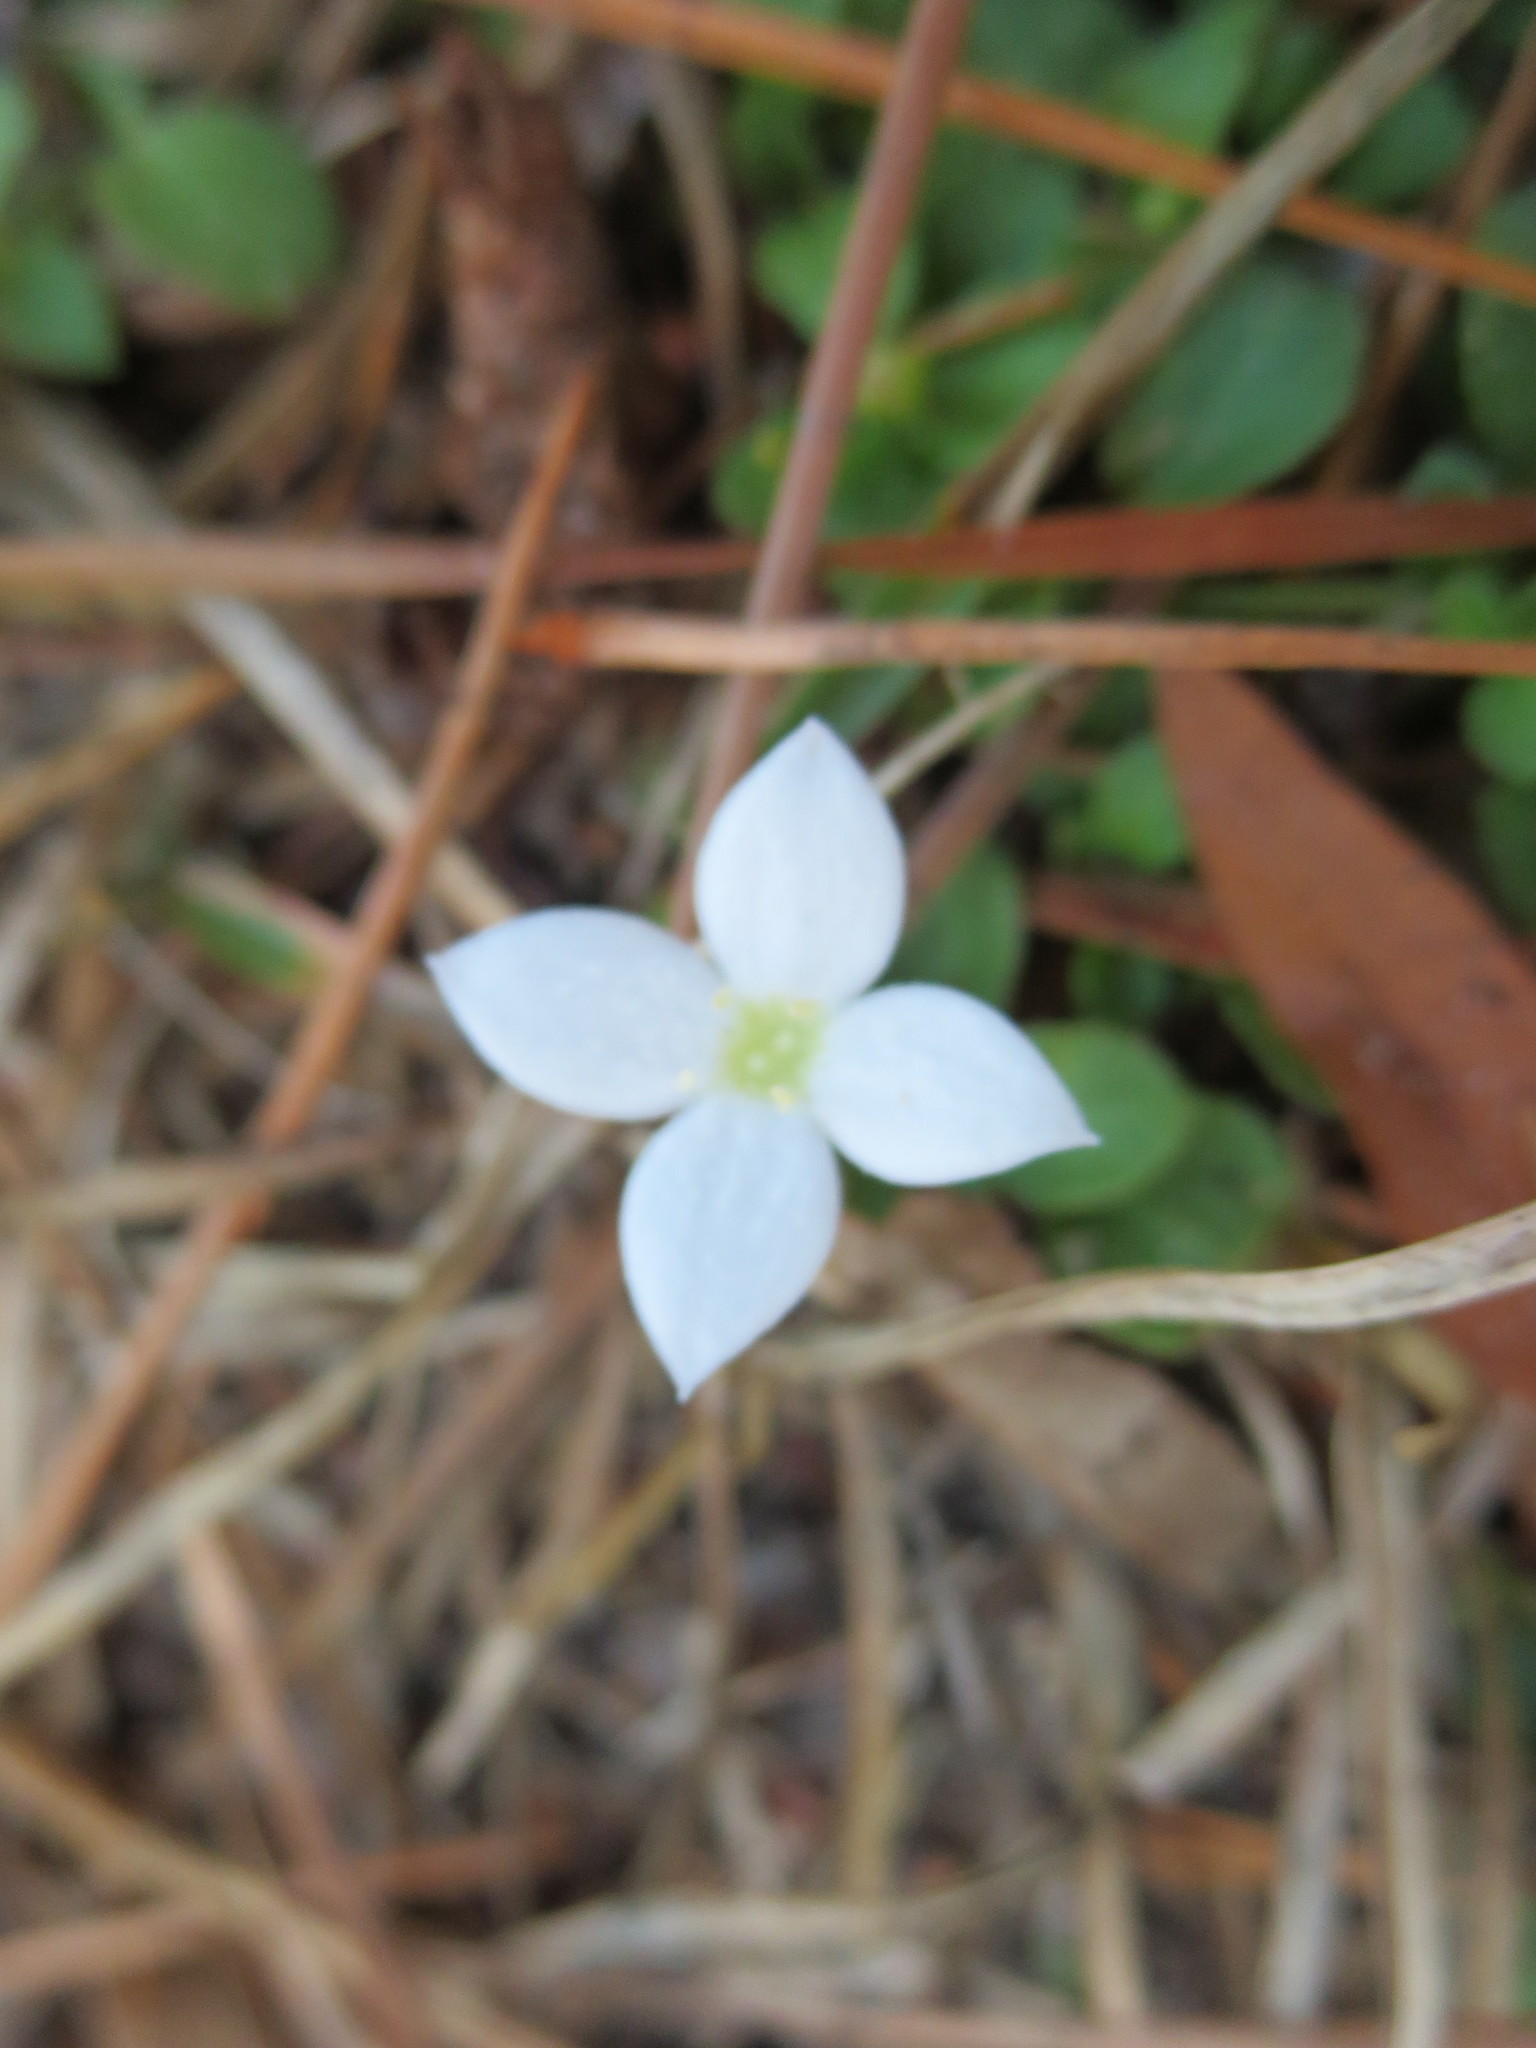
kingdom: Plantae
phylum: Tracheophyta
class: Magnoliopsida
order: Gentianales
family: Rubiaceae
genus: Houstonia
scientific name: Houstonia procumbens
